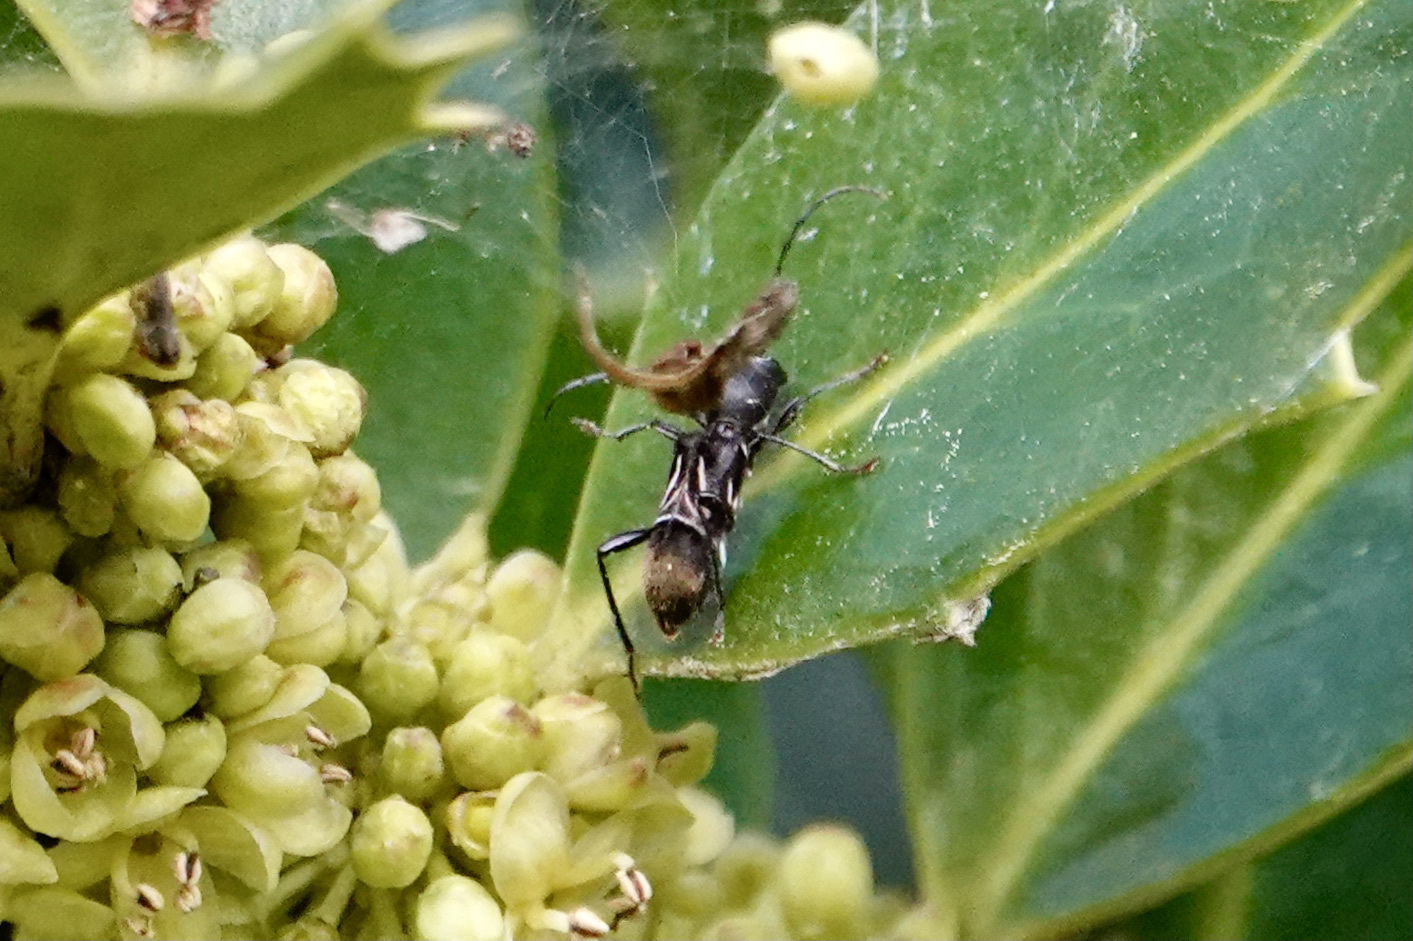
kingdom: Animalia
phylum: Arthropoda
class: Insecta
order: Coleoptera
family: Cerambycidae
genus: Cyrtophorus
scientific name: Cyrtophorus verrucosus
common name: Ant-like longhorn beetle
